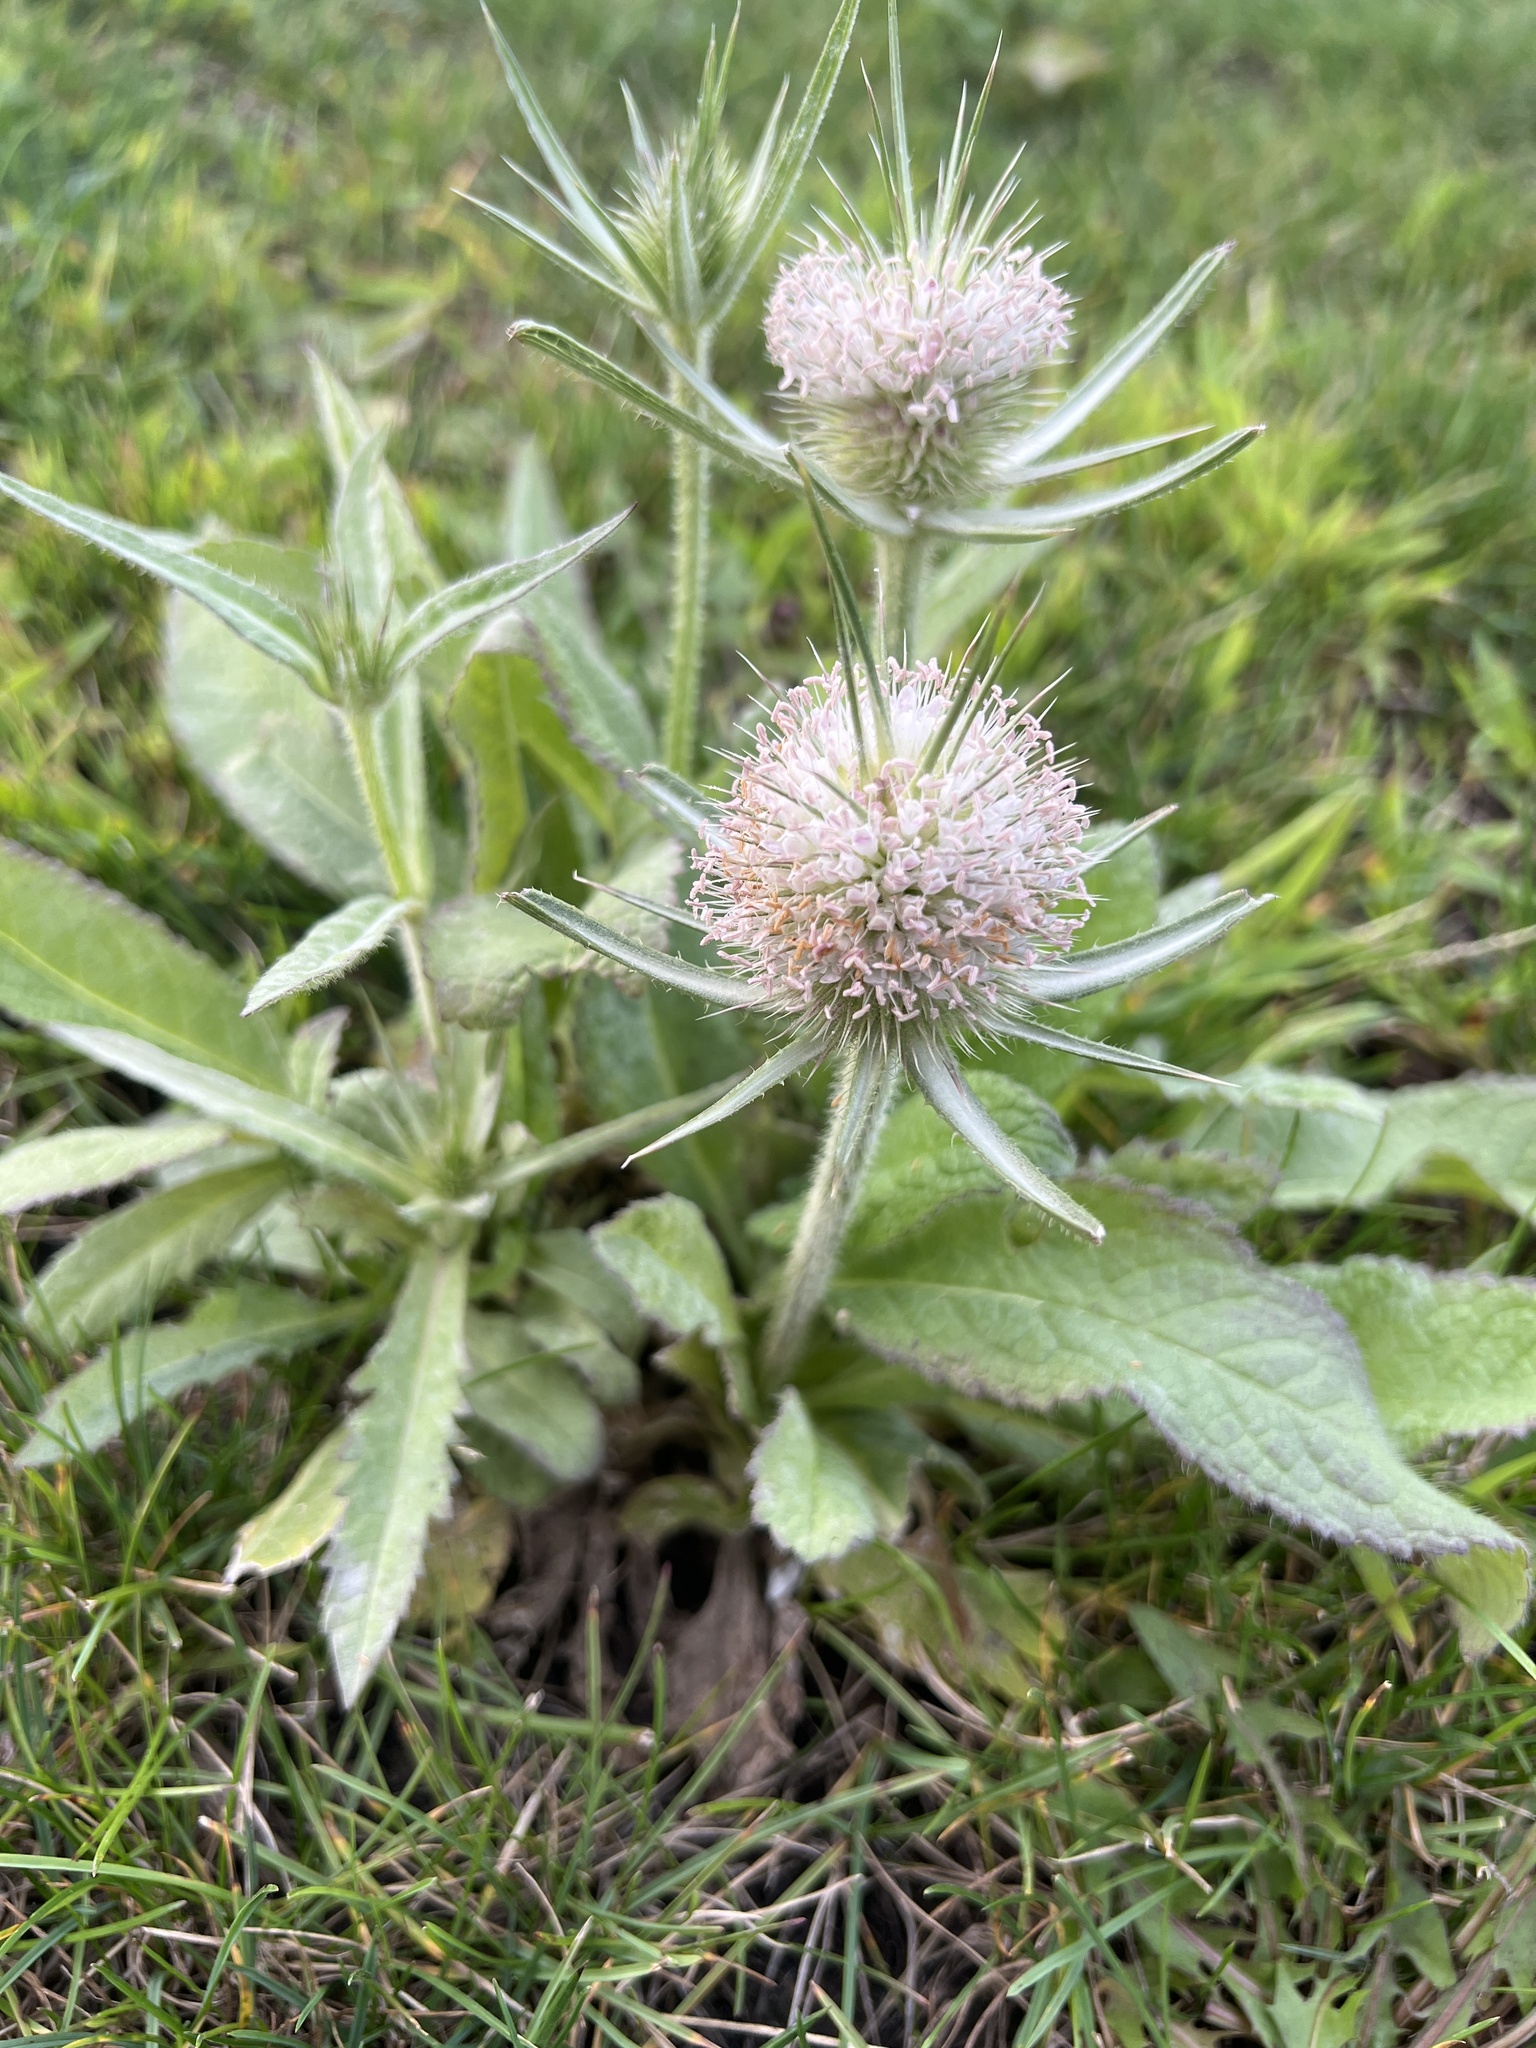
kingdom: Plantae
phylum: Tracheophyta
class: Magnoliopsida
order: Dipsacales
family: Caprifoliaceae
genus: Dipsacus
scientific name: Dipsacus laciniatus
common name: Cut-leaved teasel
